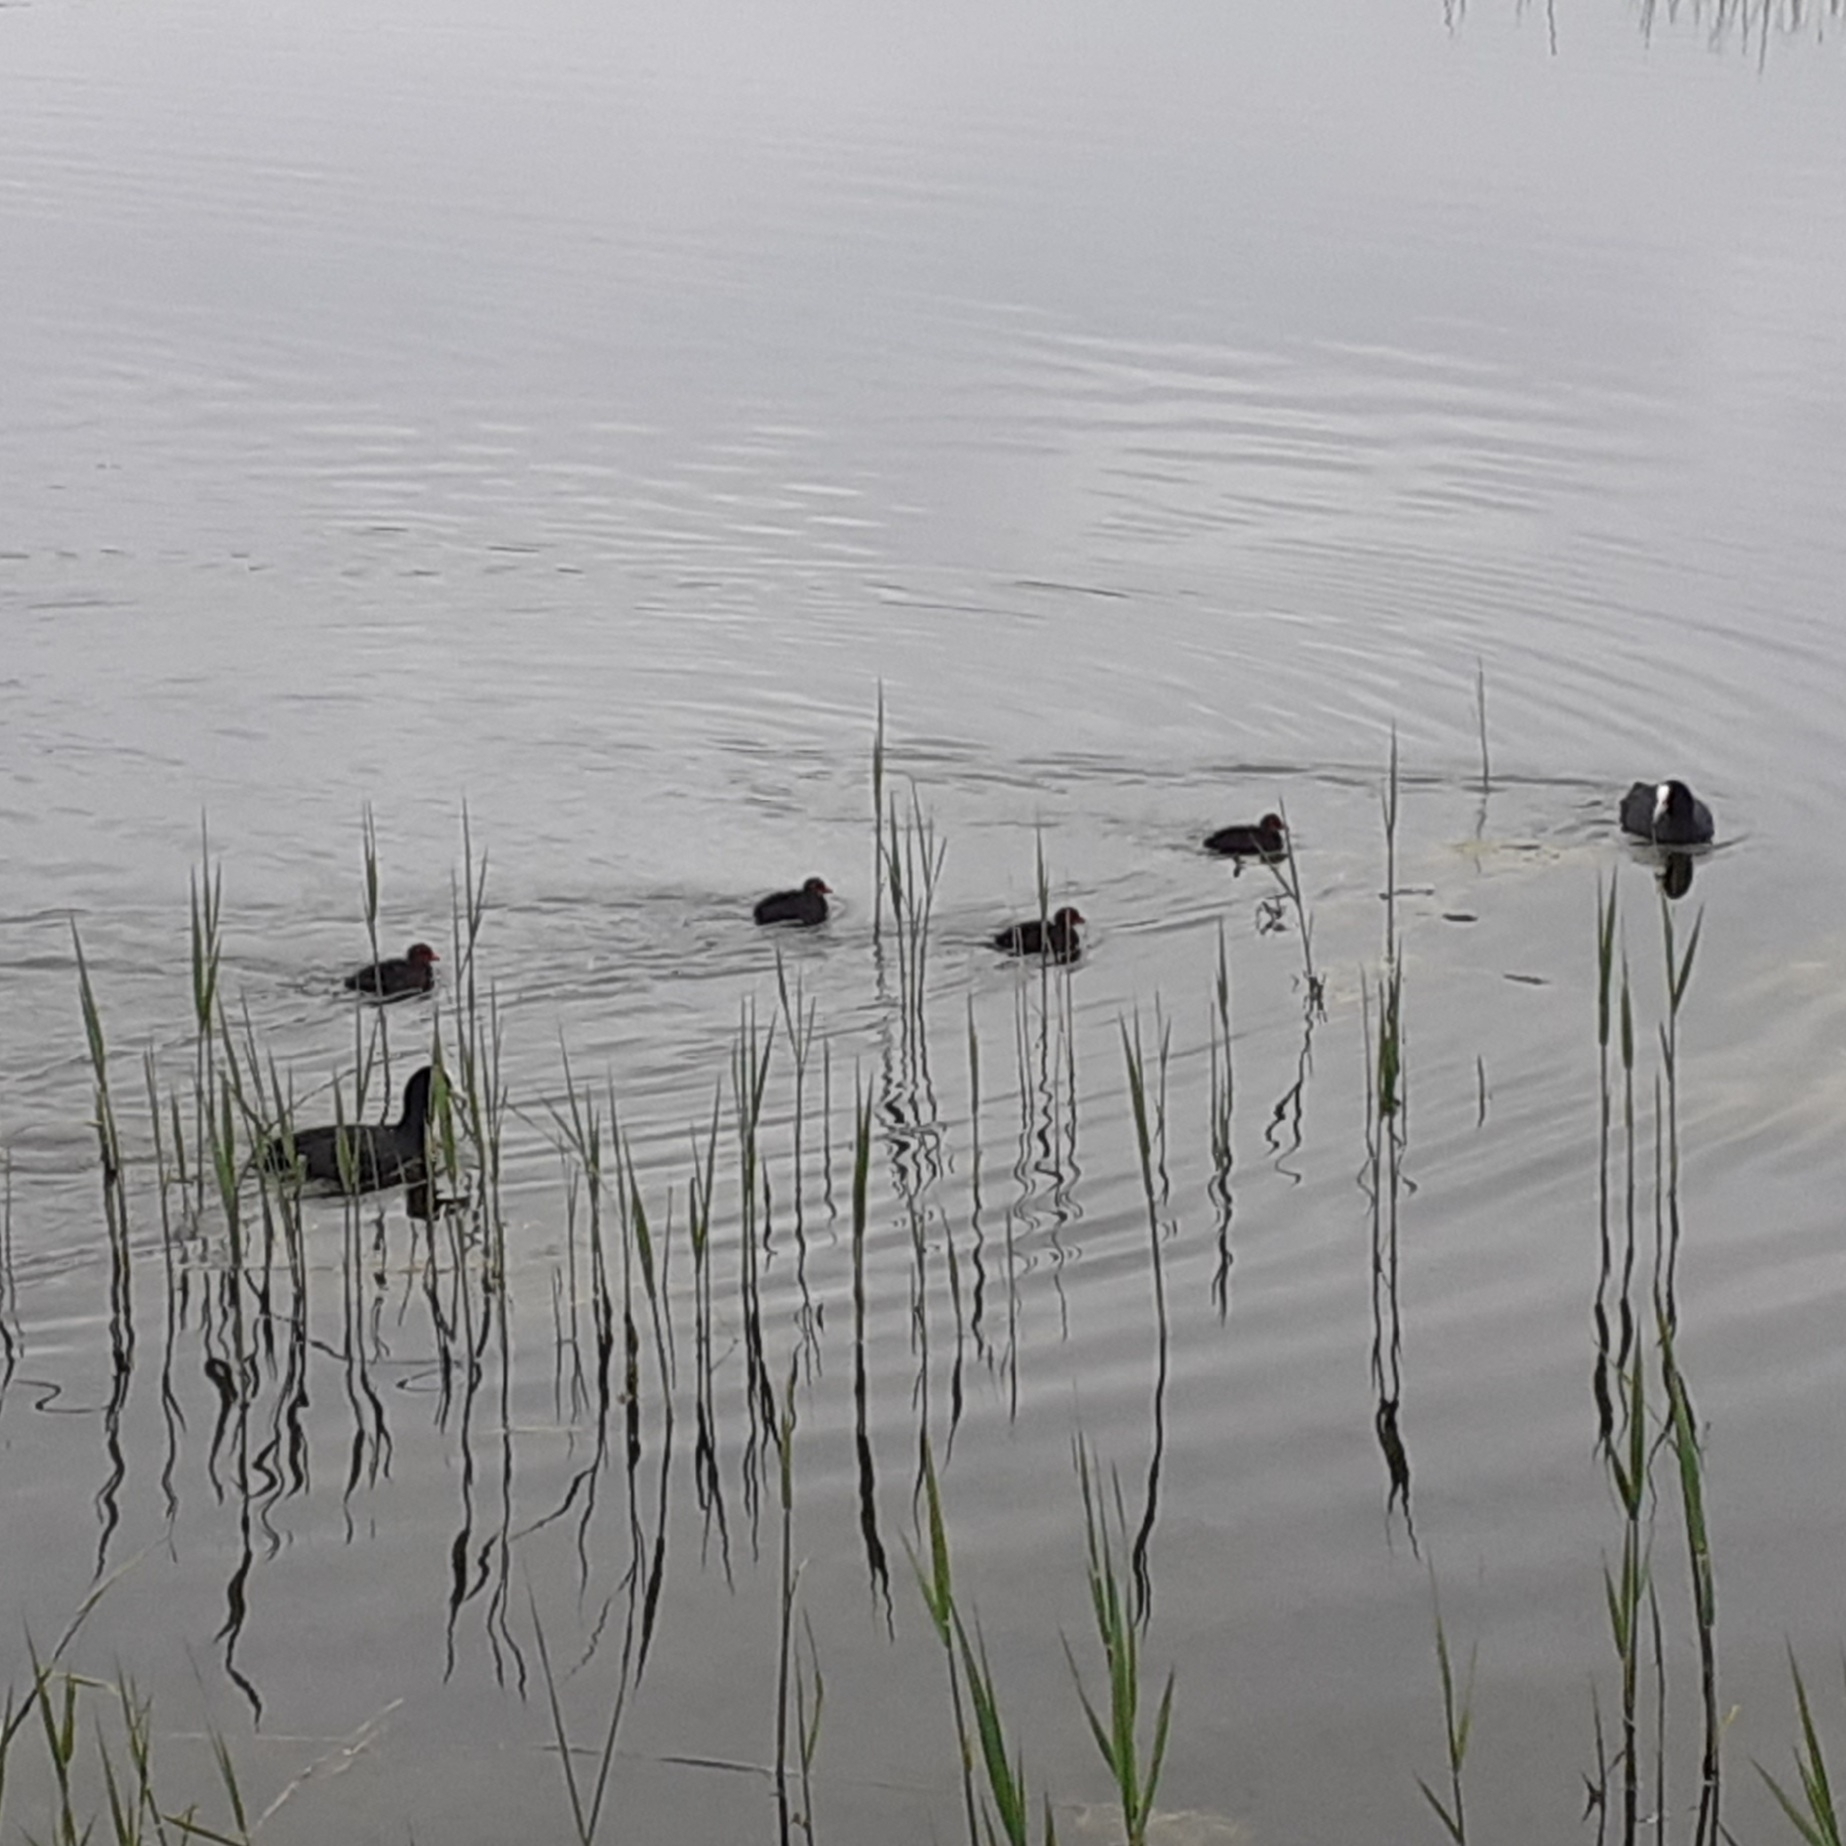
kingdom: Animalia
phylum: Chordata
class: Aves
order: Gruiformes
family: Rallidae
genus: Fulica
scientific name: Fulica atra
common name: Eurasian coot
